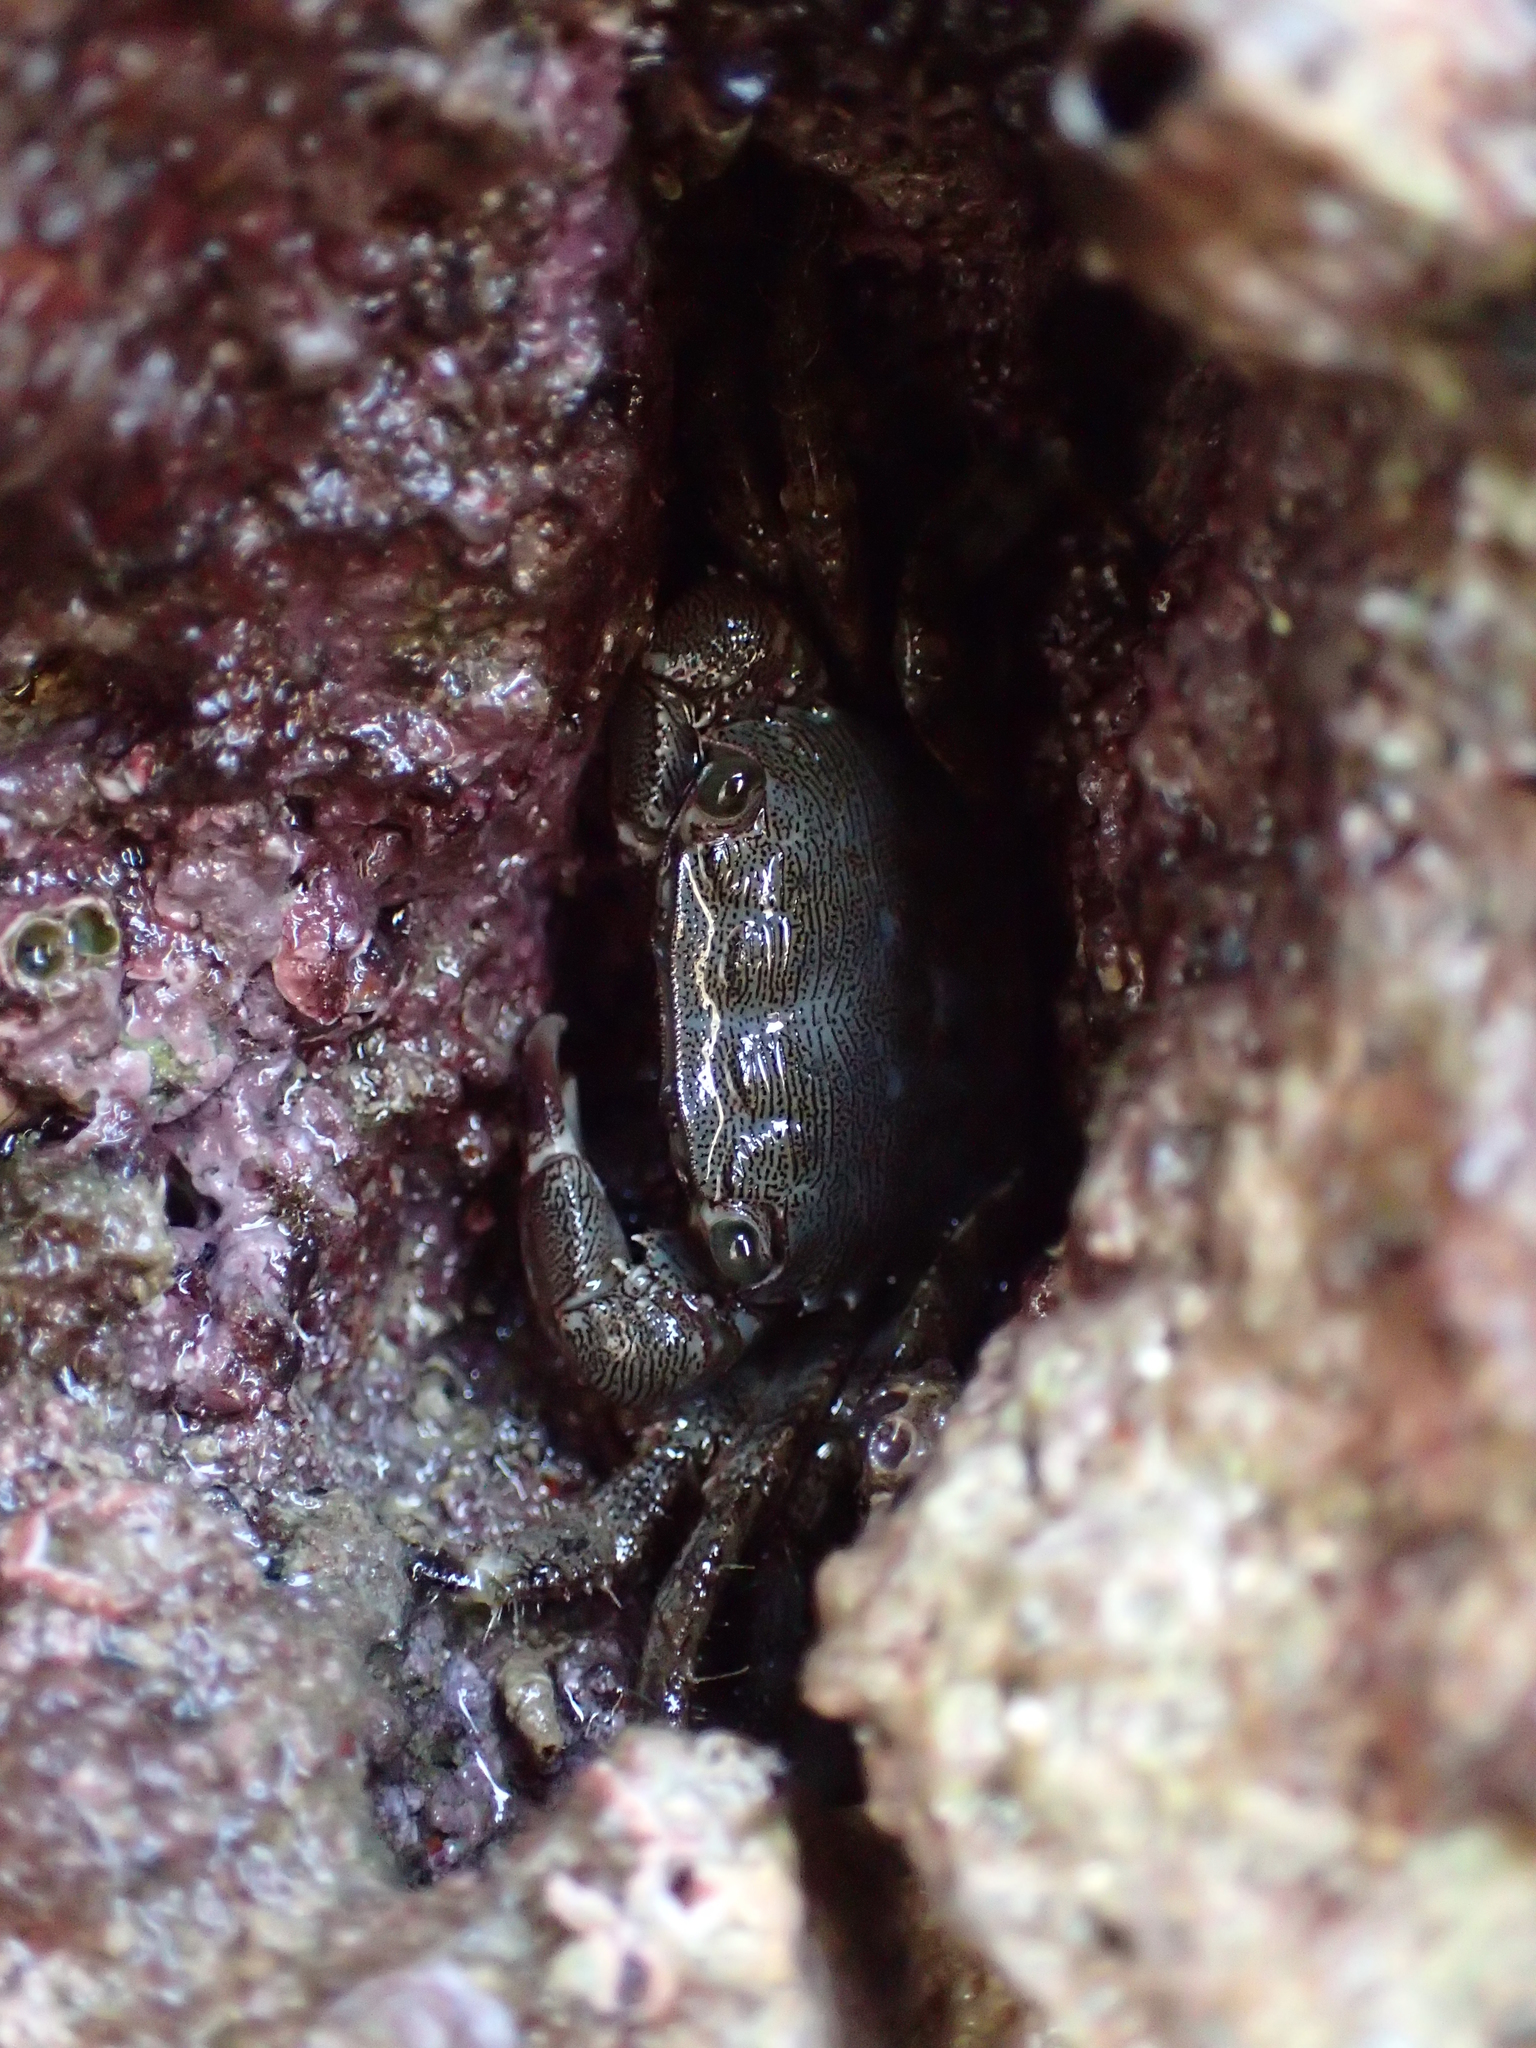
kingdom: Animalia
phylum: Arthropoda
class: Malacostraca
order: Decapoda
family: Grapsidae
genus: Pachygrapsus
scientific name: Pachygrapsus marmoratus
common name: Marbled rock crab
